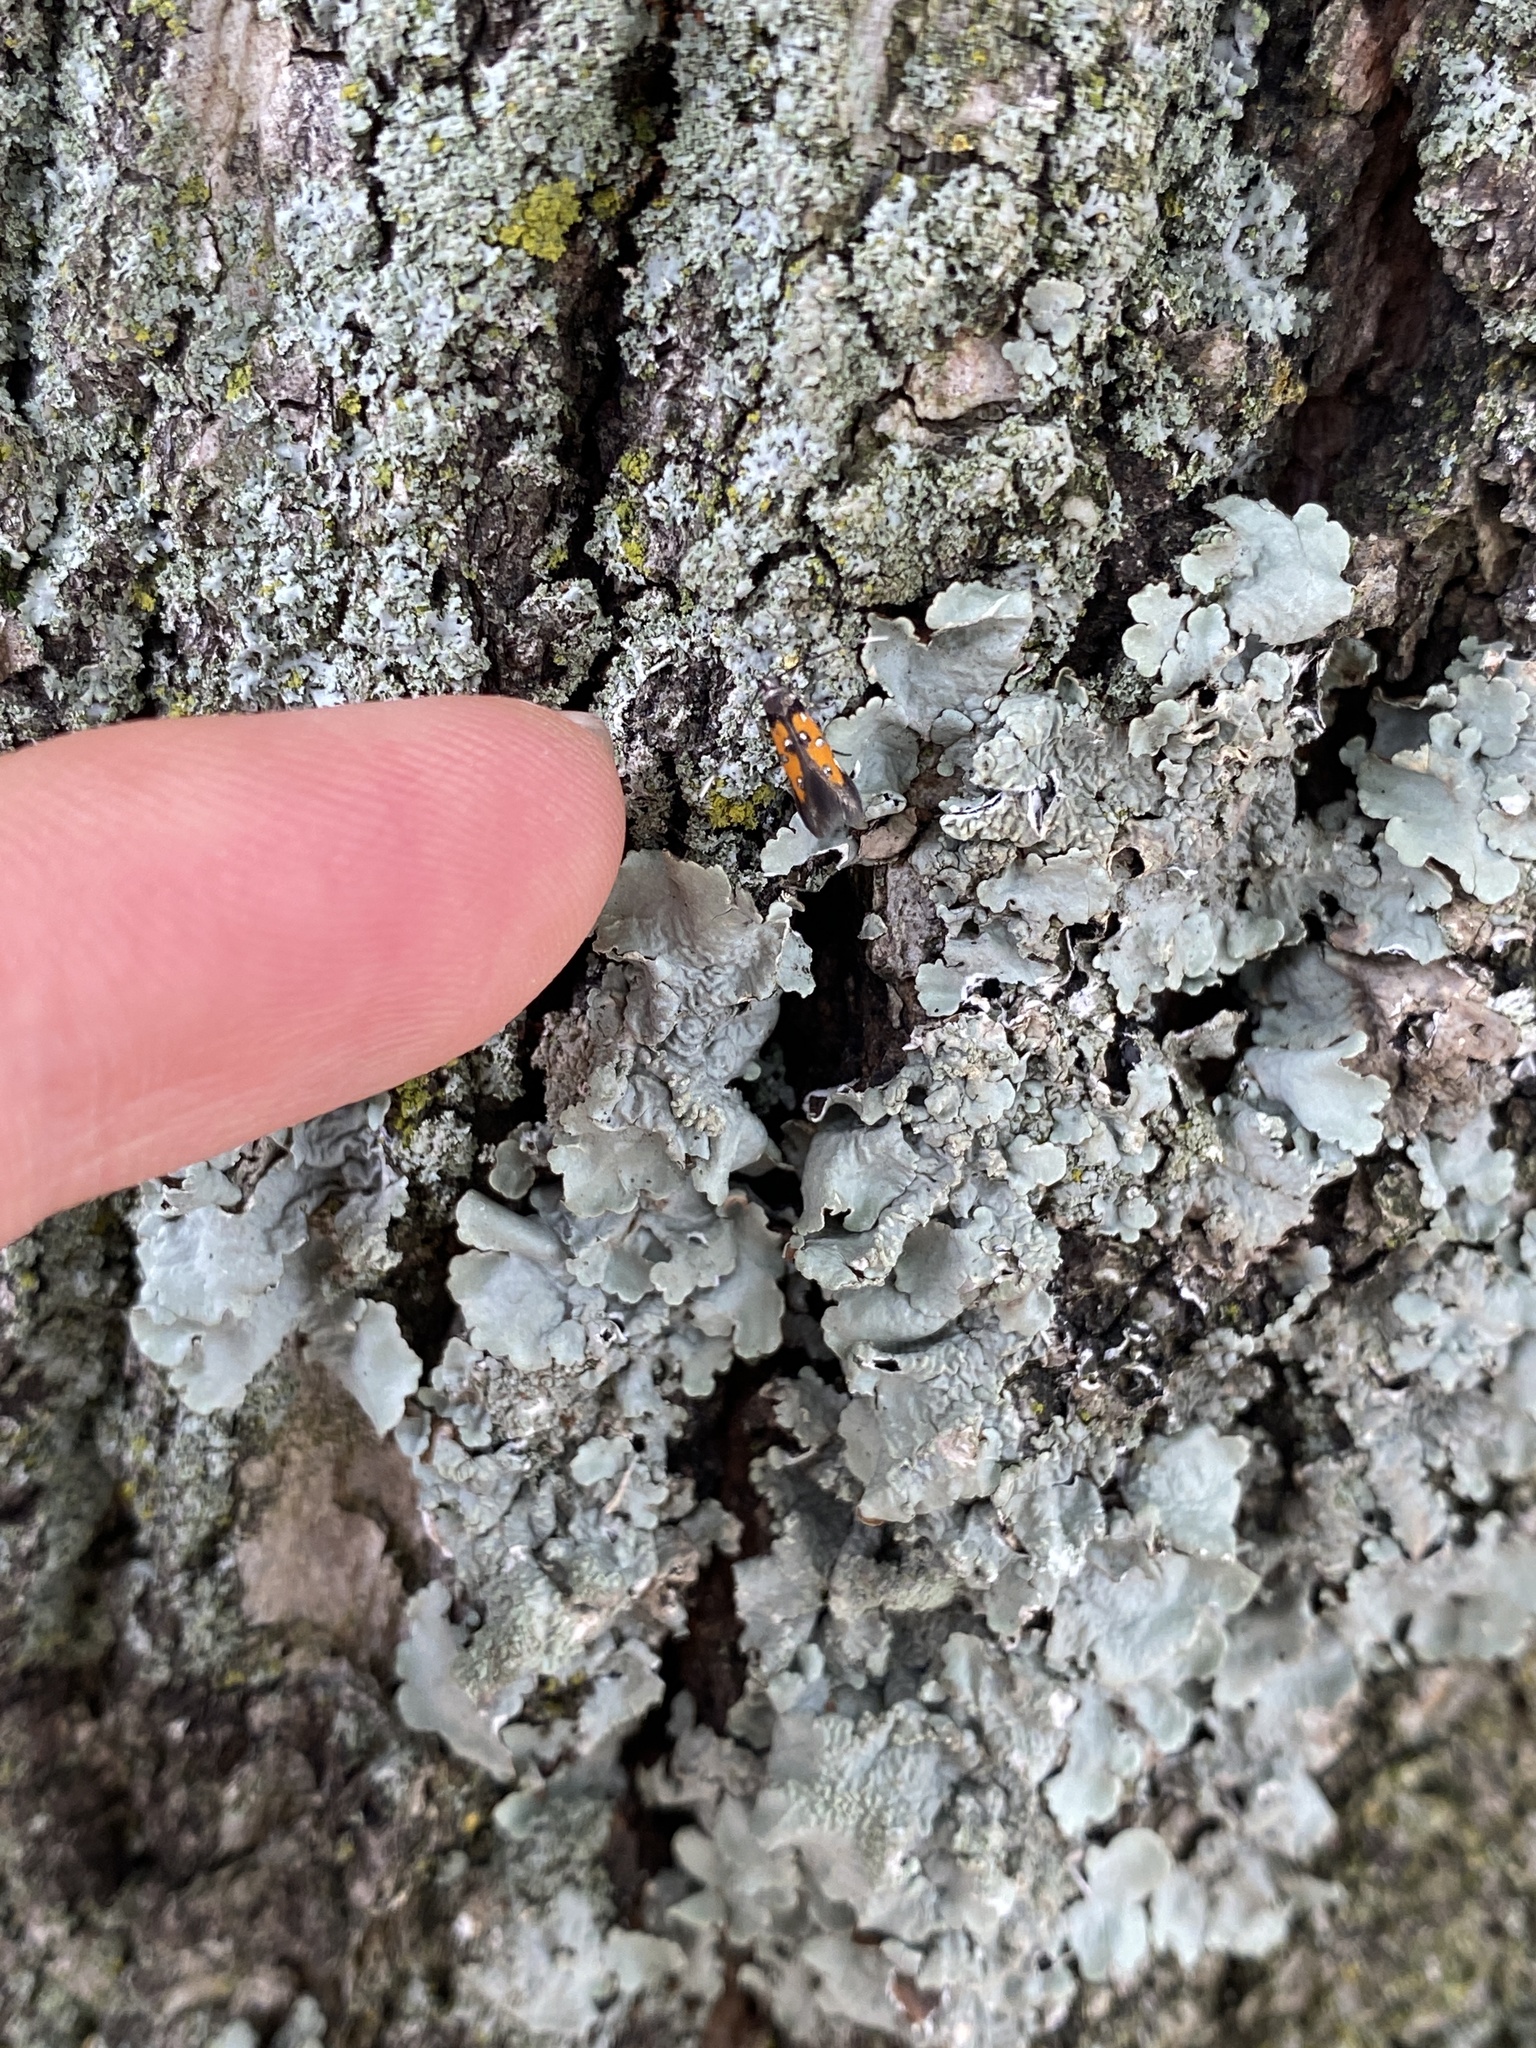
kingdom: Animalia
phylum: Arthropoda
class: Insecta
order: Lepidoptera
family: Elachistidae
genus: Chrysoclista
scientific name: Chrysoclista linneela
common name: Lime cosmet
